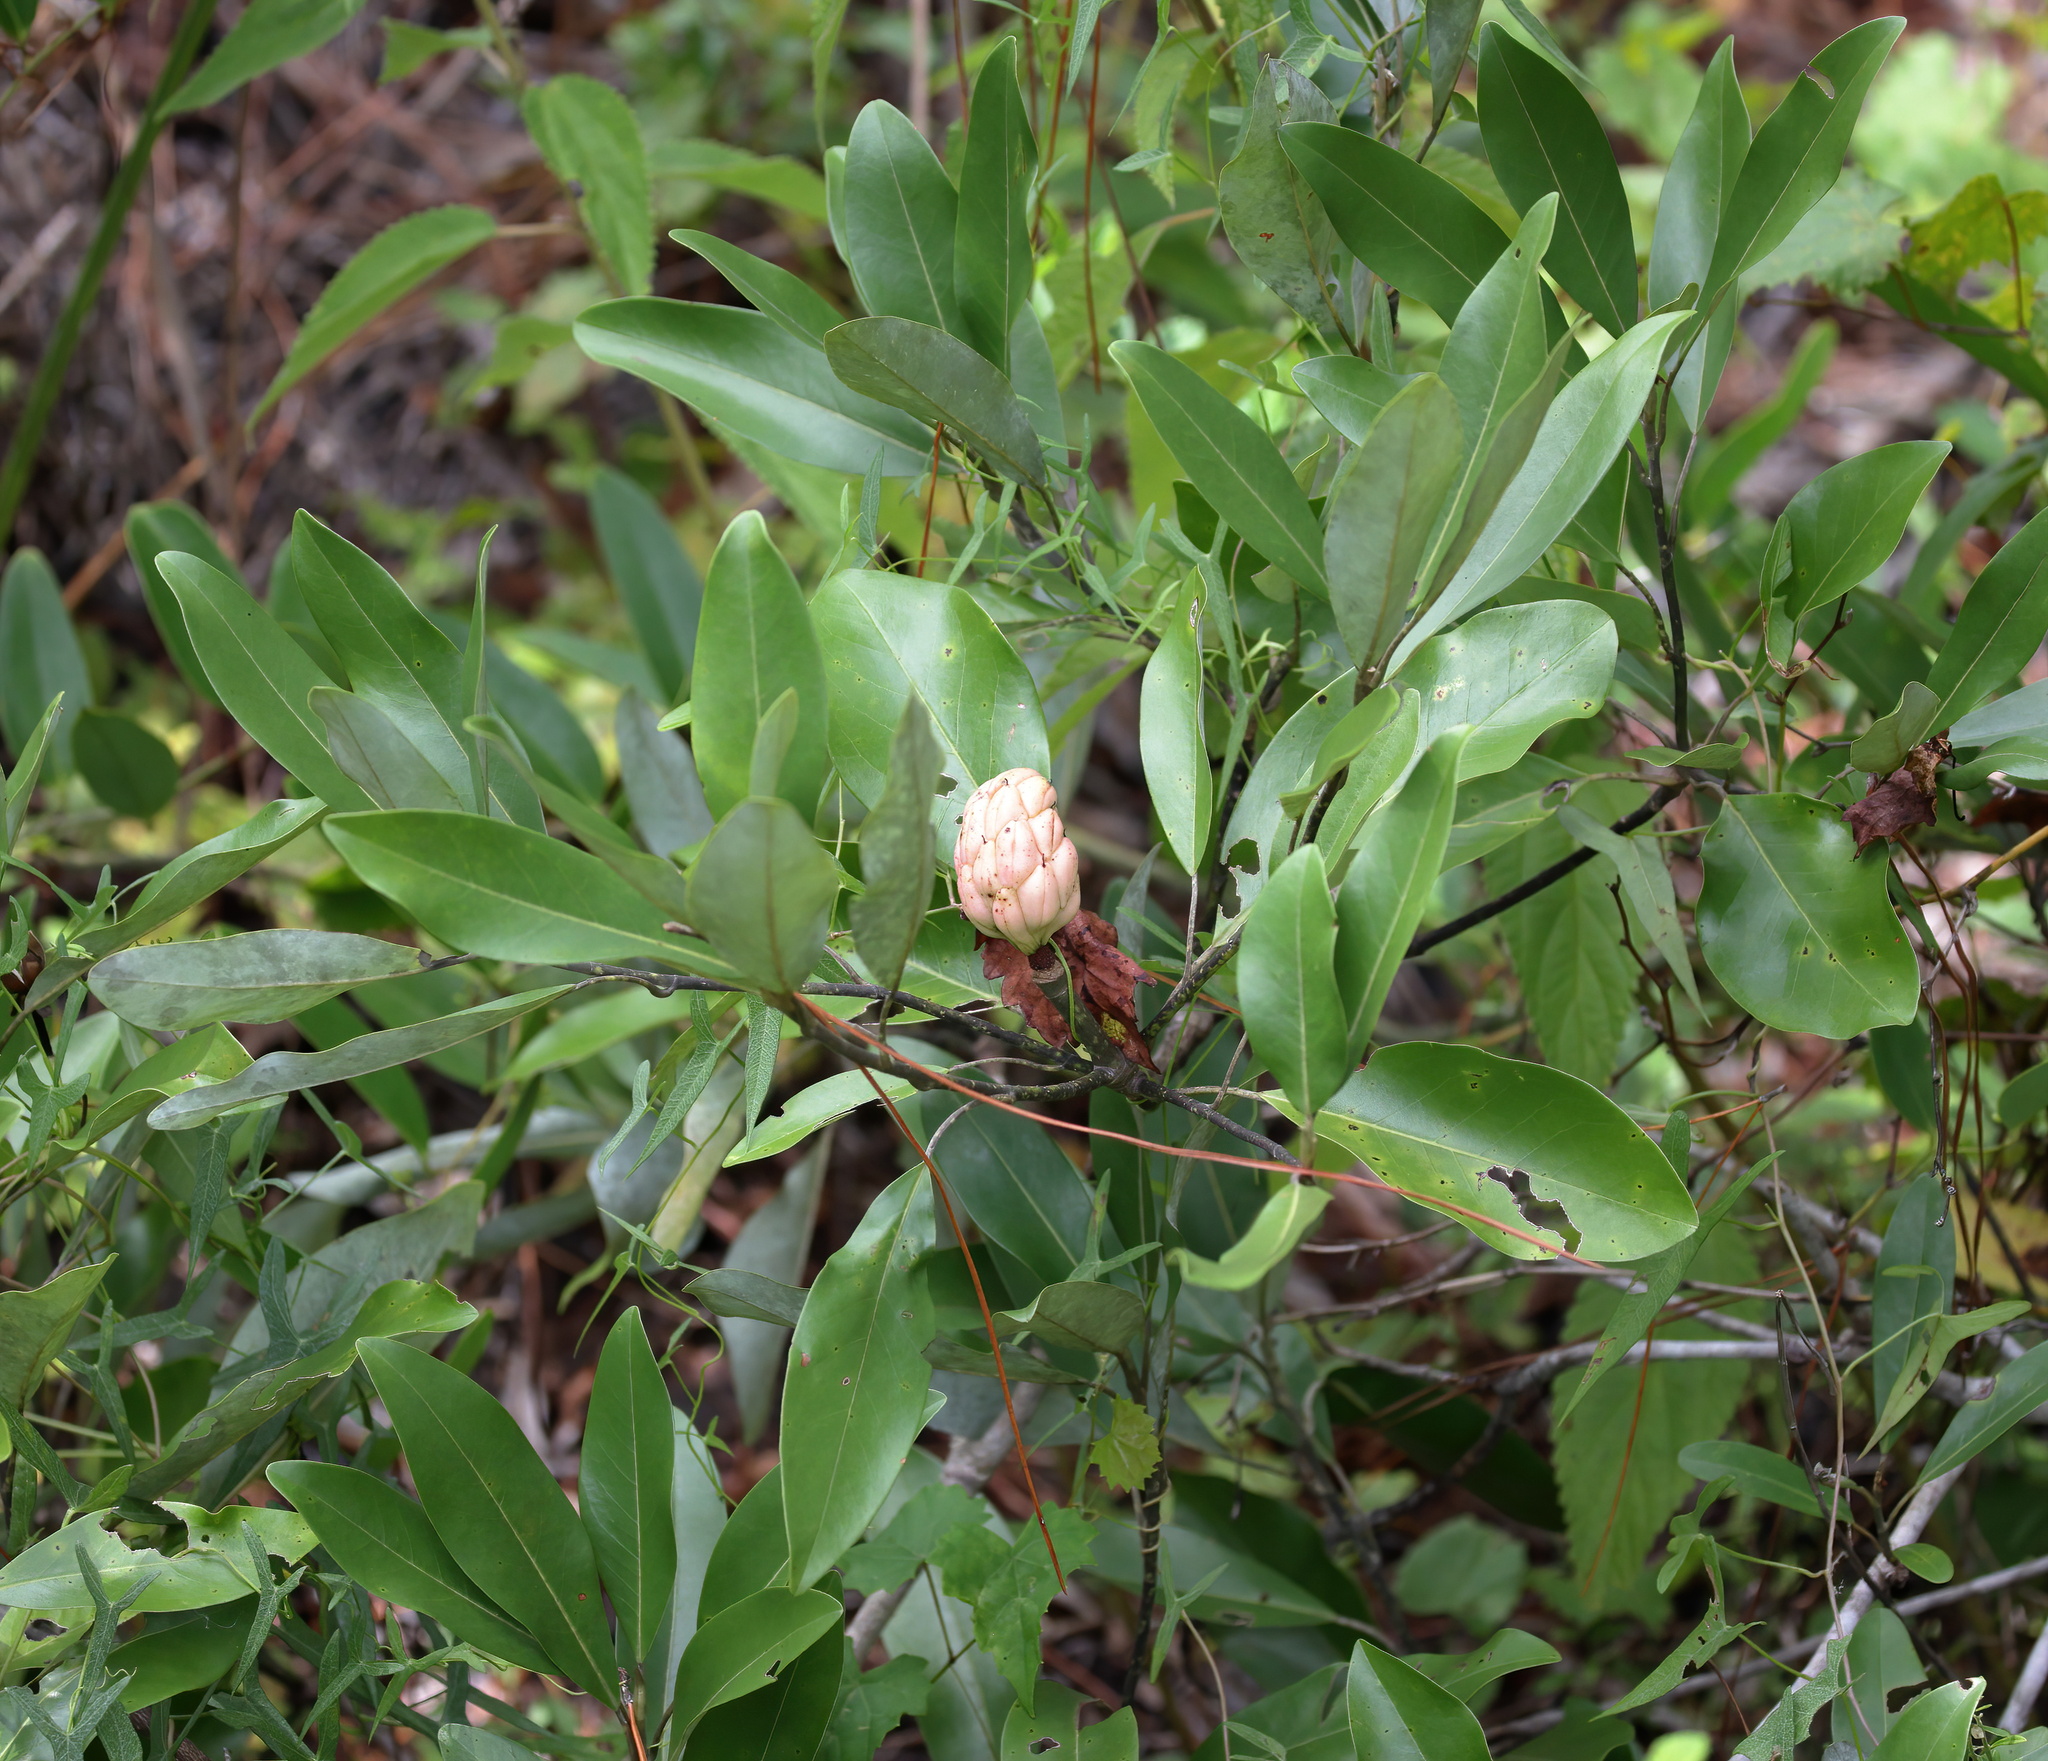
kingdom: Plantae
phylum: Tracheophyta
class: Magnoliopsida
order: Magnoliales
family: Magnoliaceae
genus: Magnolia
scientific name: Magnolia virginiana
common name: Swamp bay
